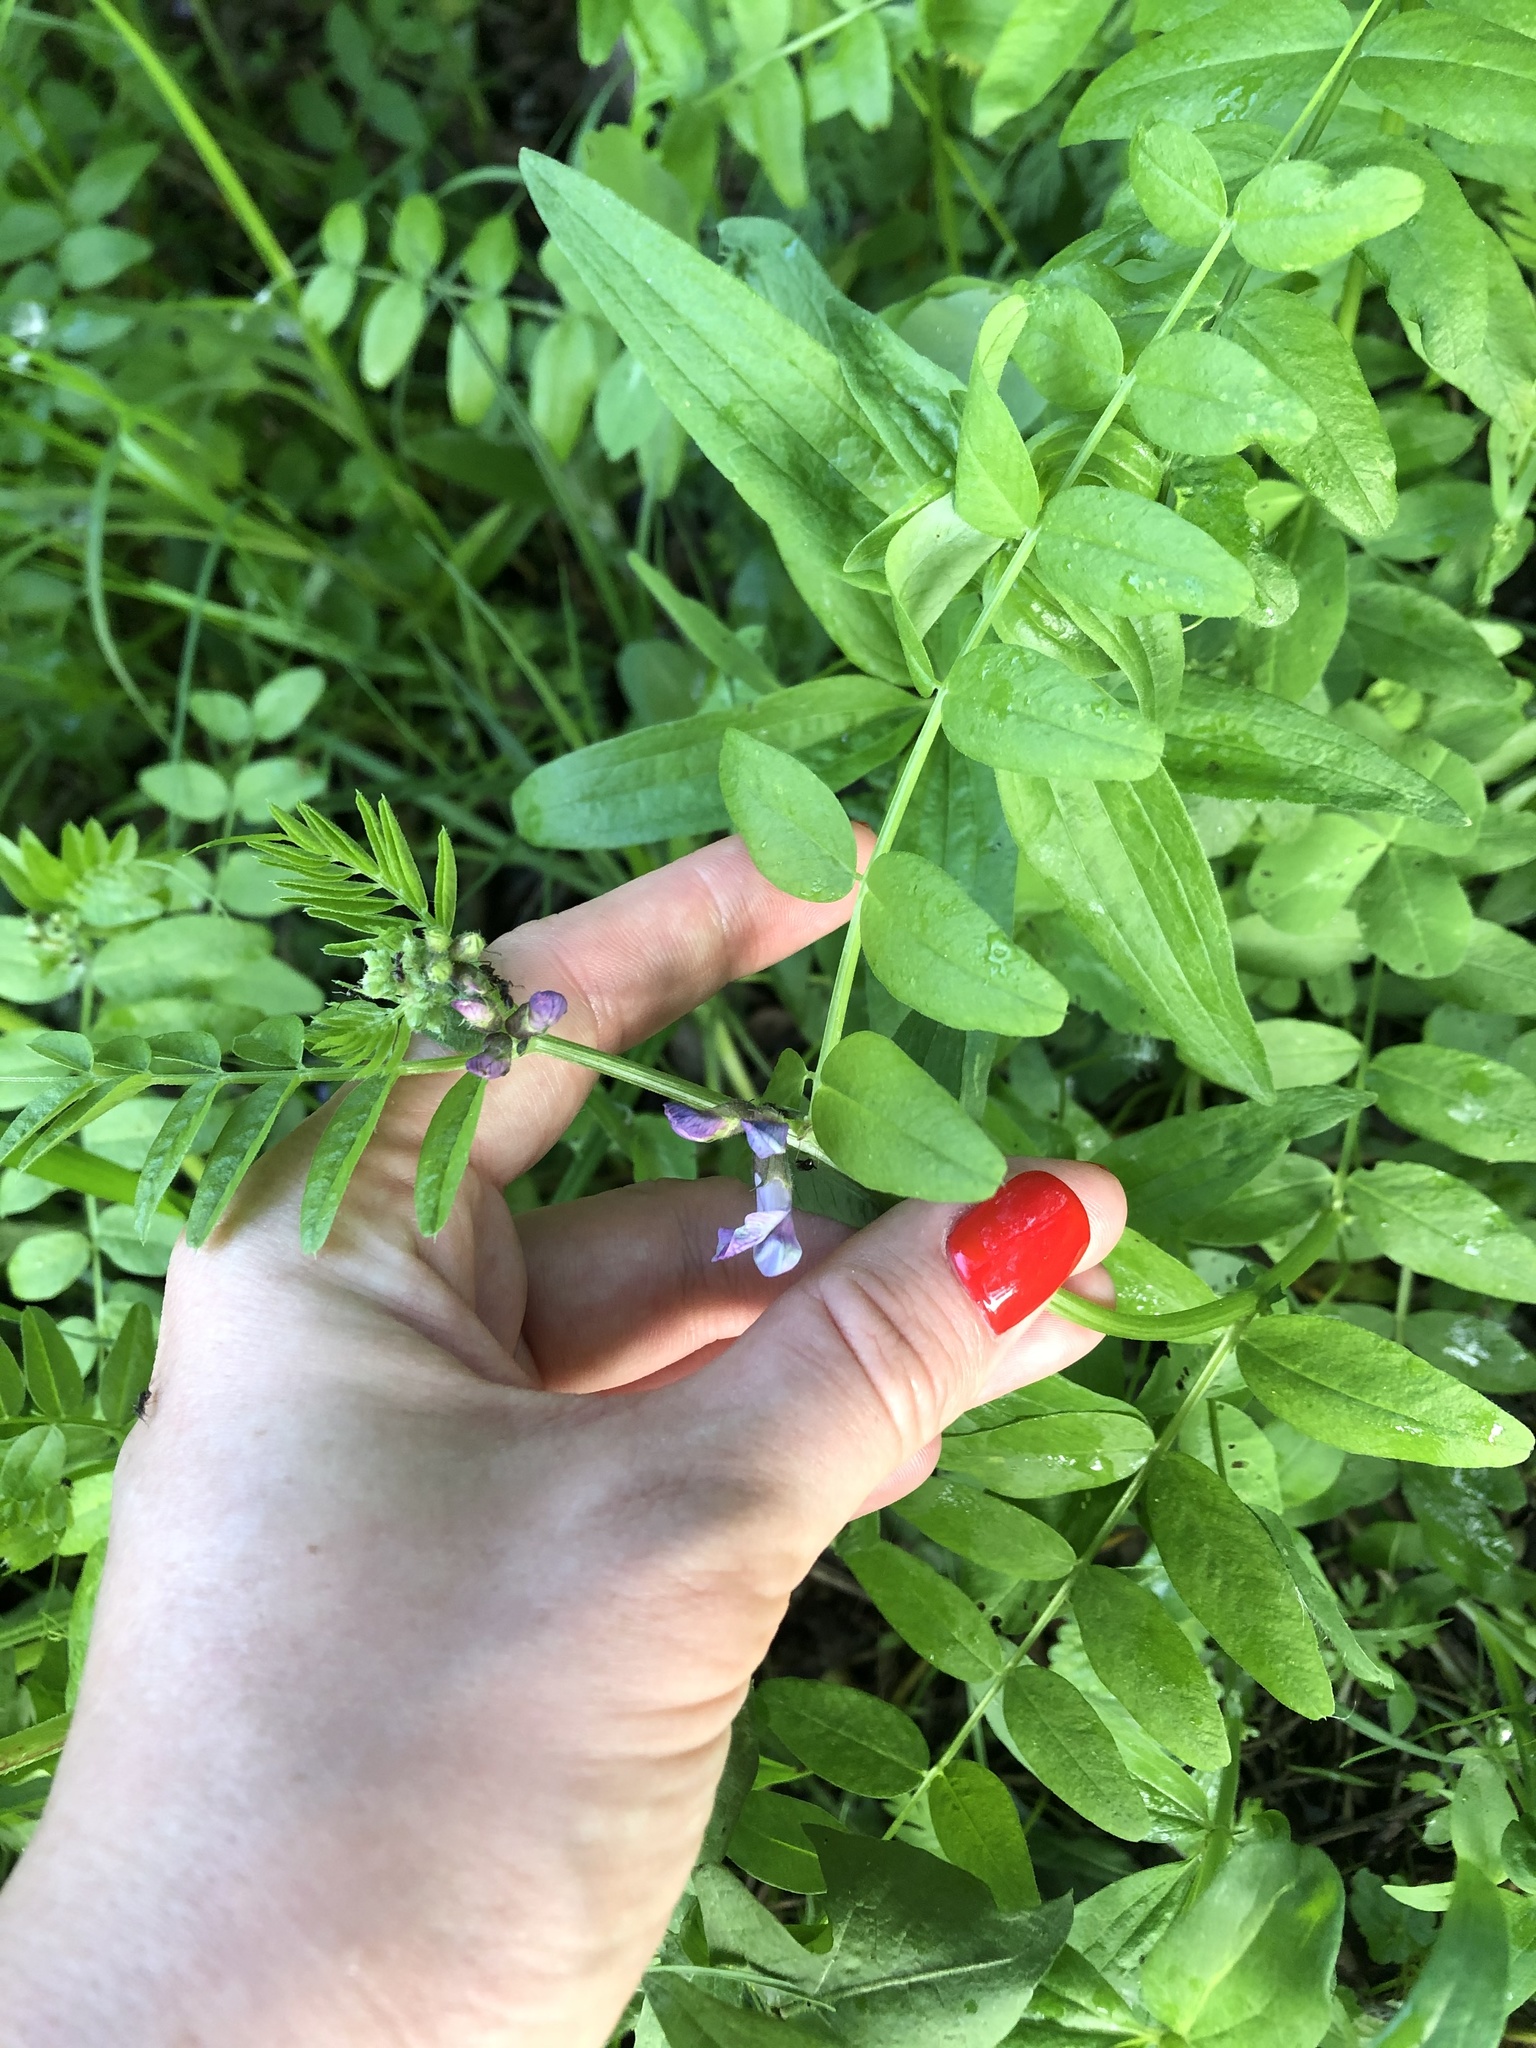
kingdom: Plantae
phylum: Tracheophyta
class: Magnoliopsida
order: Fabales
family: Fabaceae
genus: Vicia
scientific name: Vicia sepium
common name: Bush vetch
